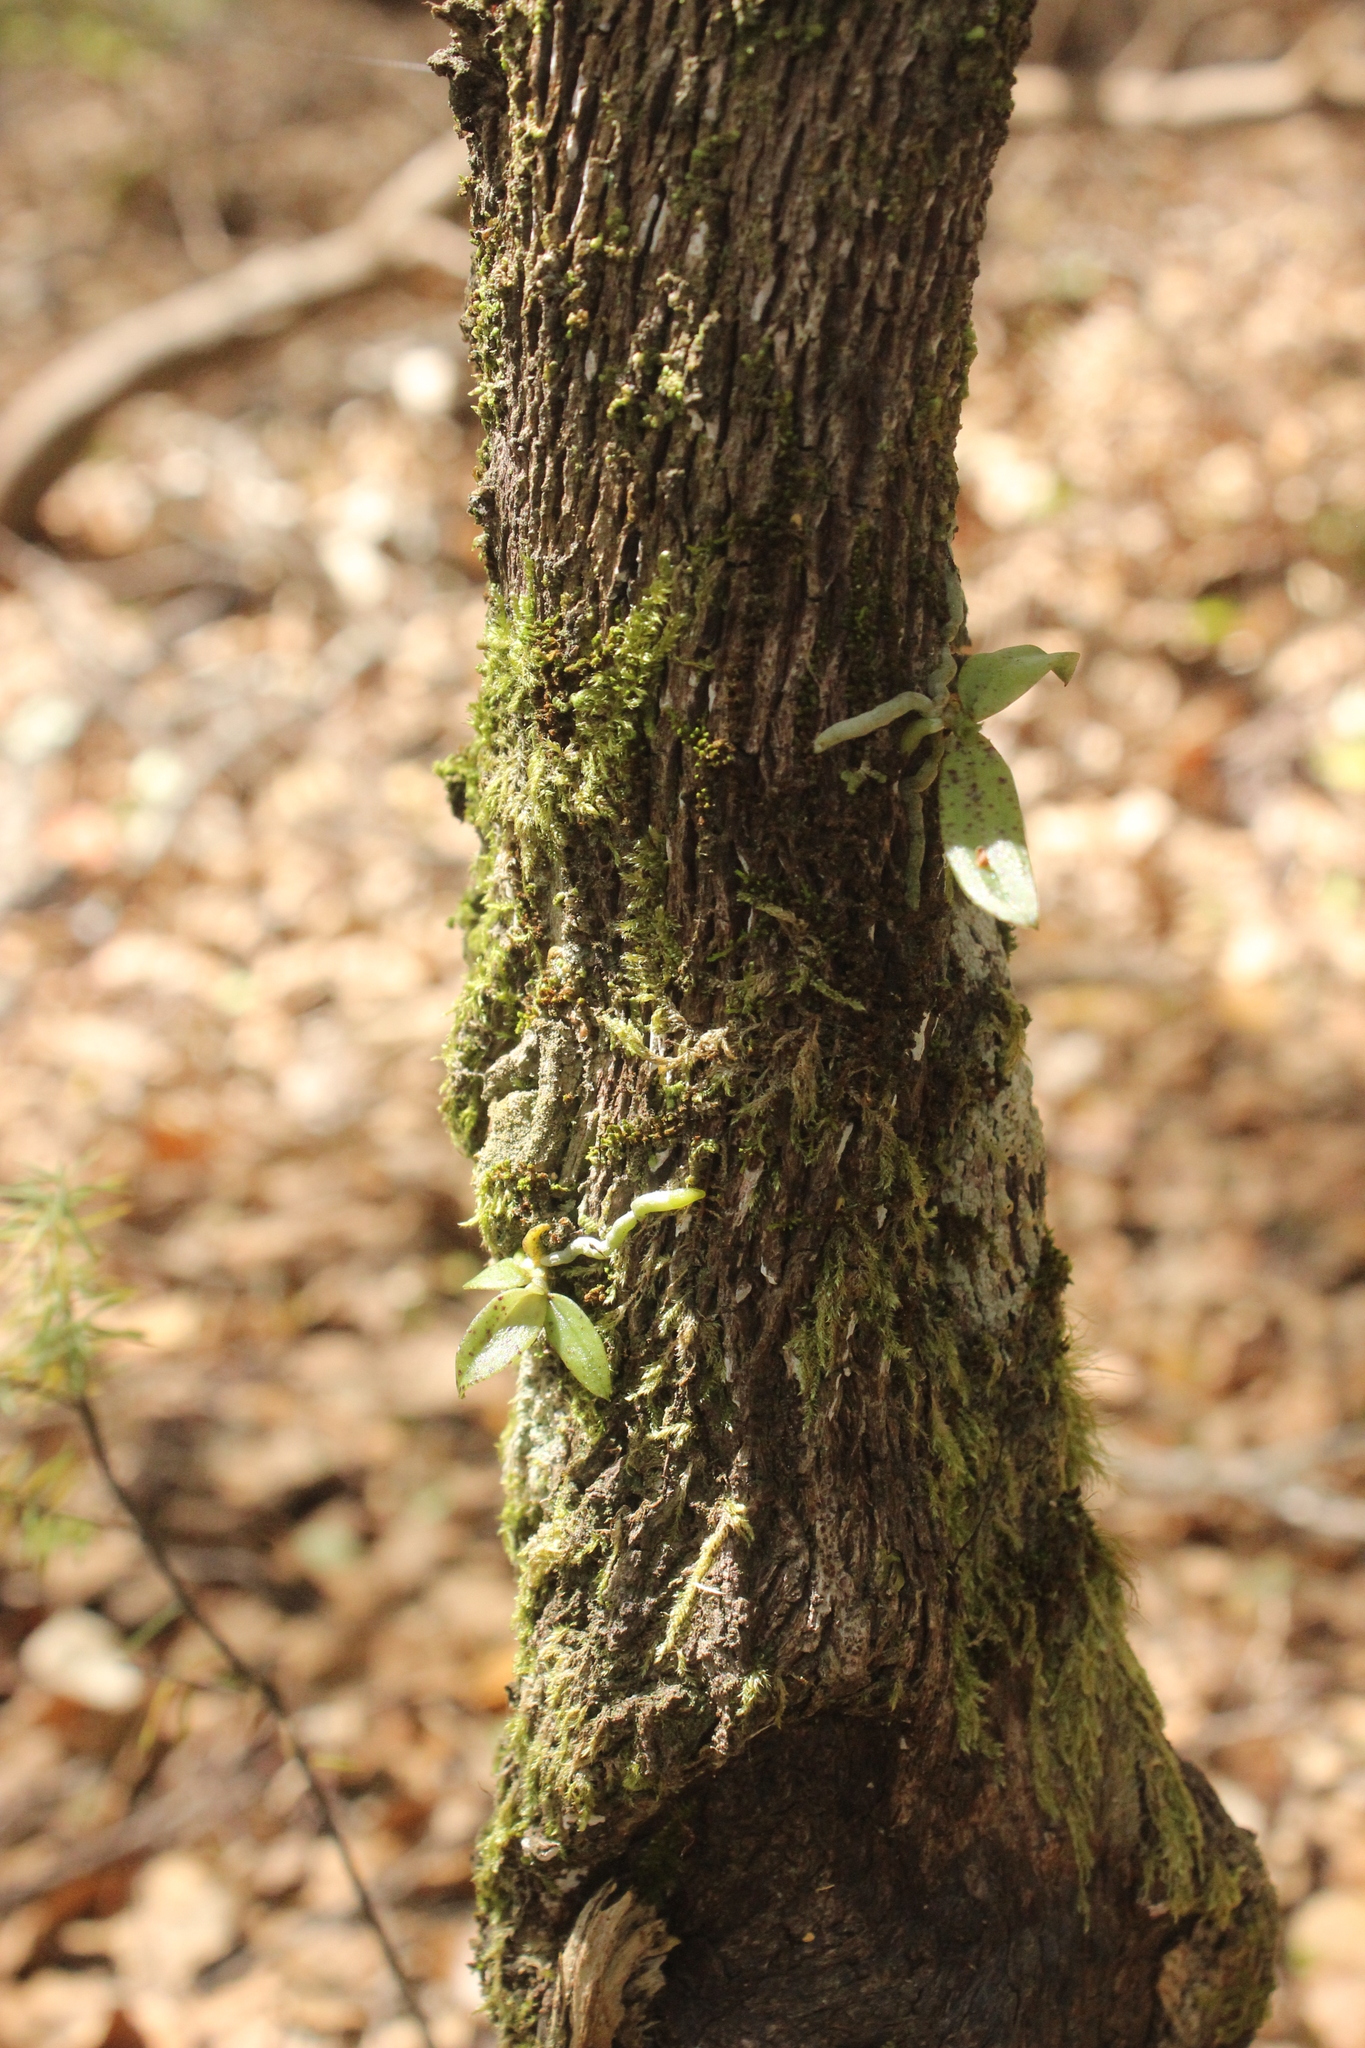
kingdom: Plantae
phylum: Tracheophyta
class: Liliopsida
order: Asparagales
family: Orchidaceae
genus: Drymoanthus
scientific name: Drymoanthus flavus
